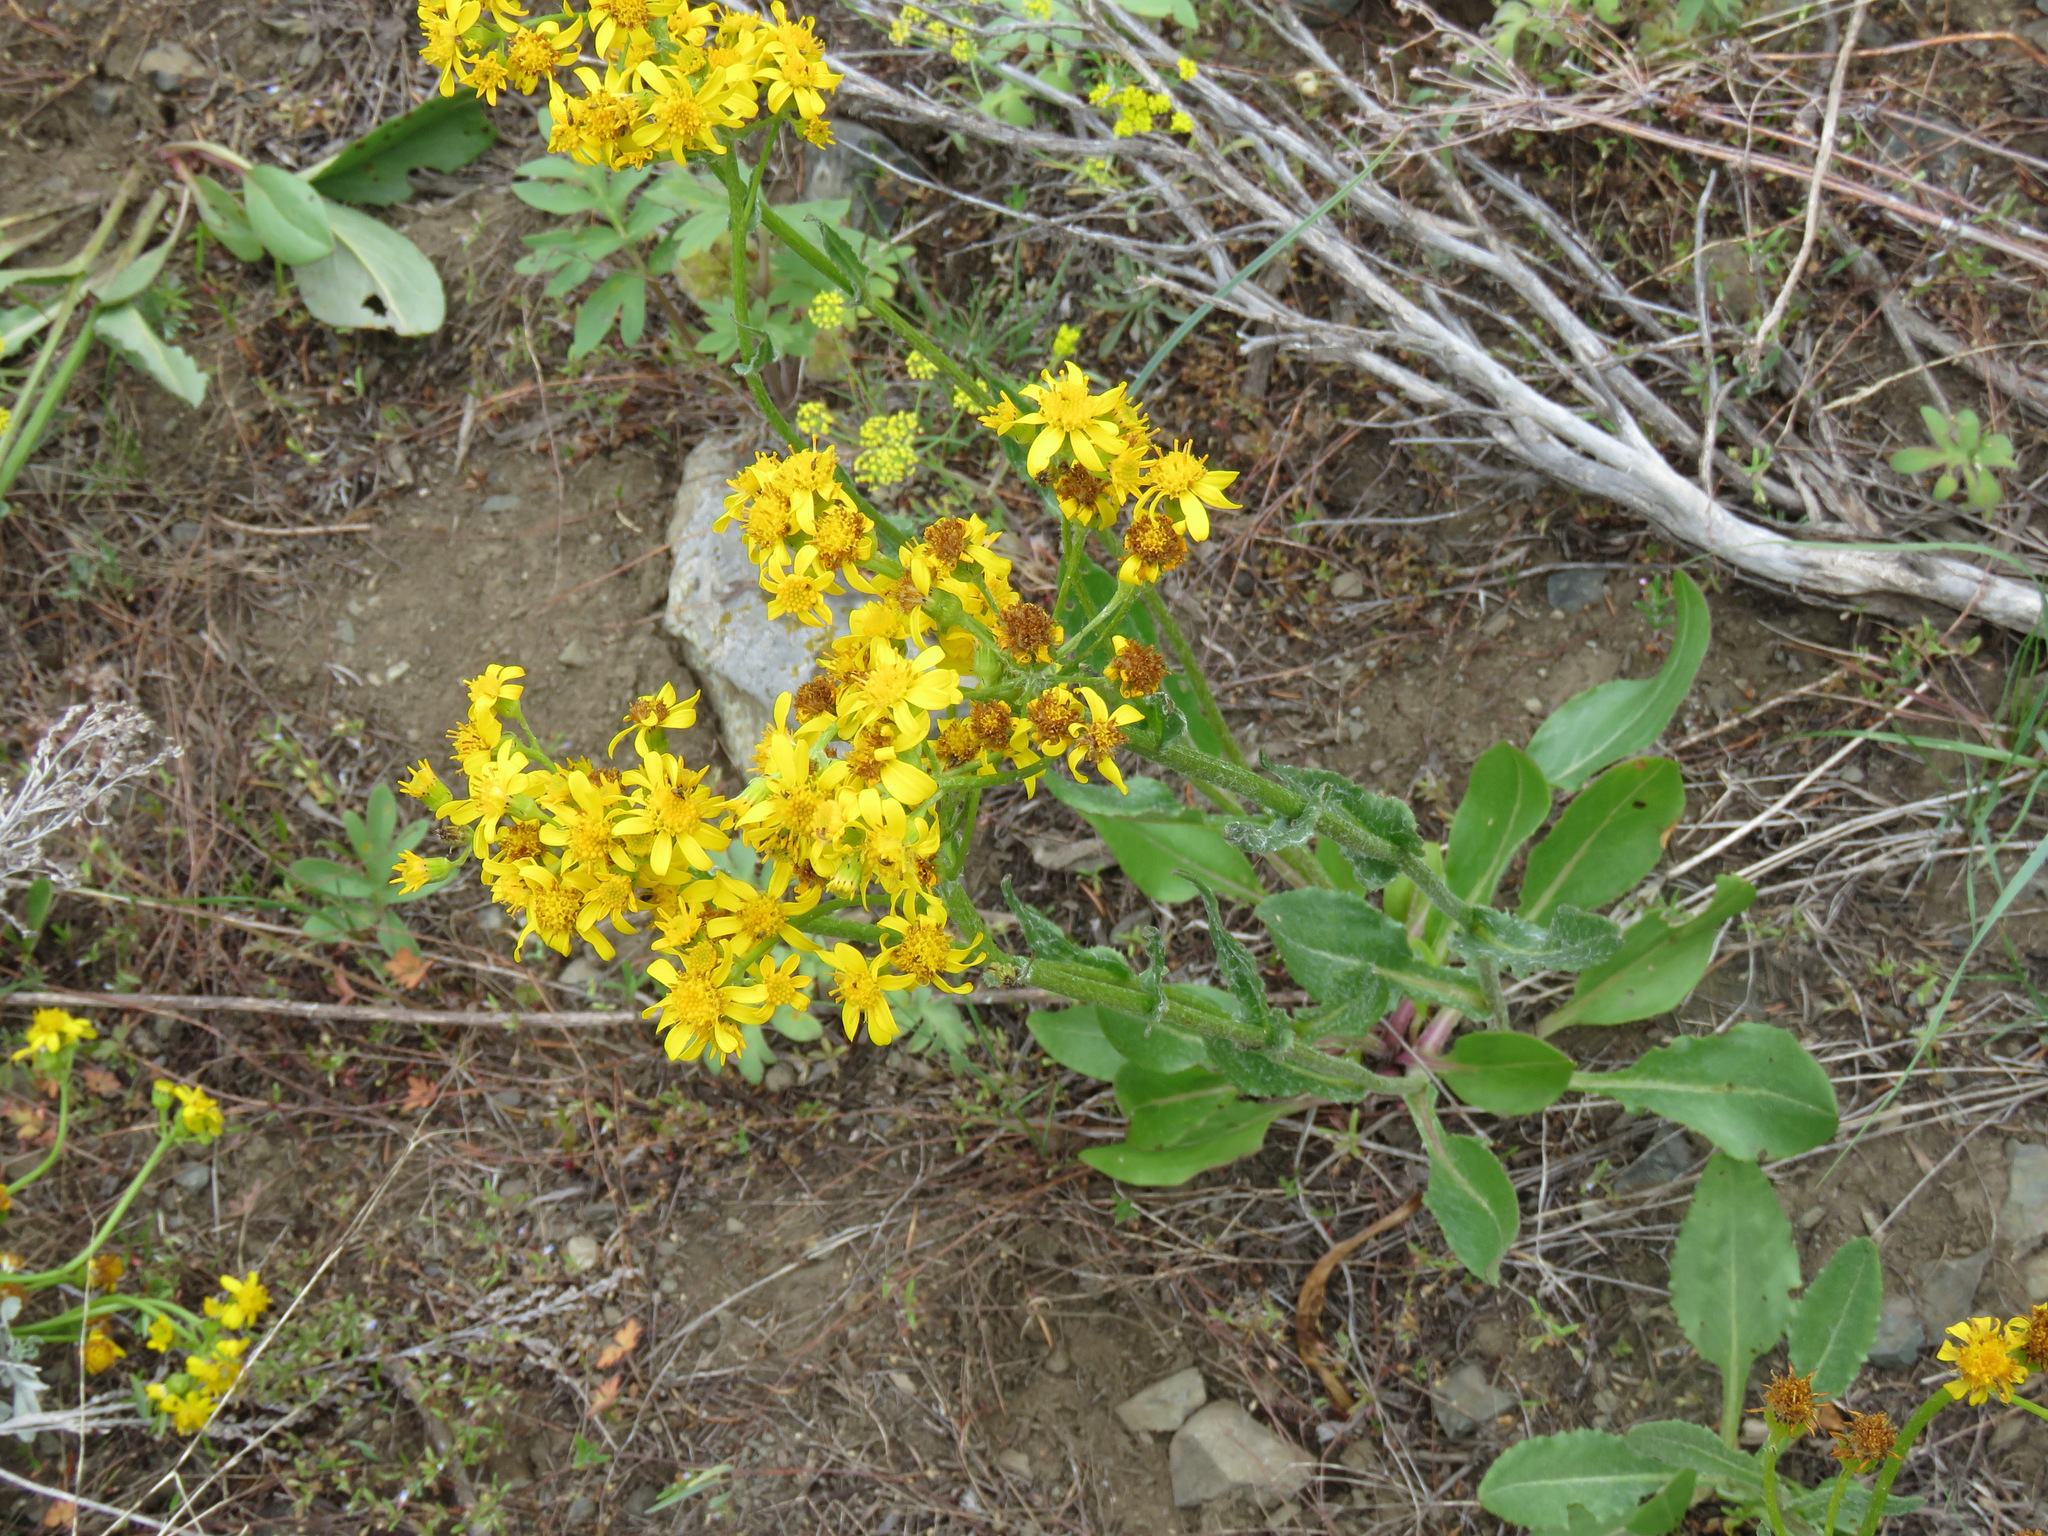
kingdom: Plantae
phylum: Tracheophyta
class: Magnoliopsida
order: Asterales
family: Asteraceae
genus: Senecio
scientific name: Senecio integerrimus
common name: Gaugeplant
